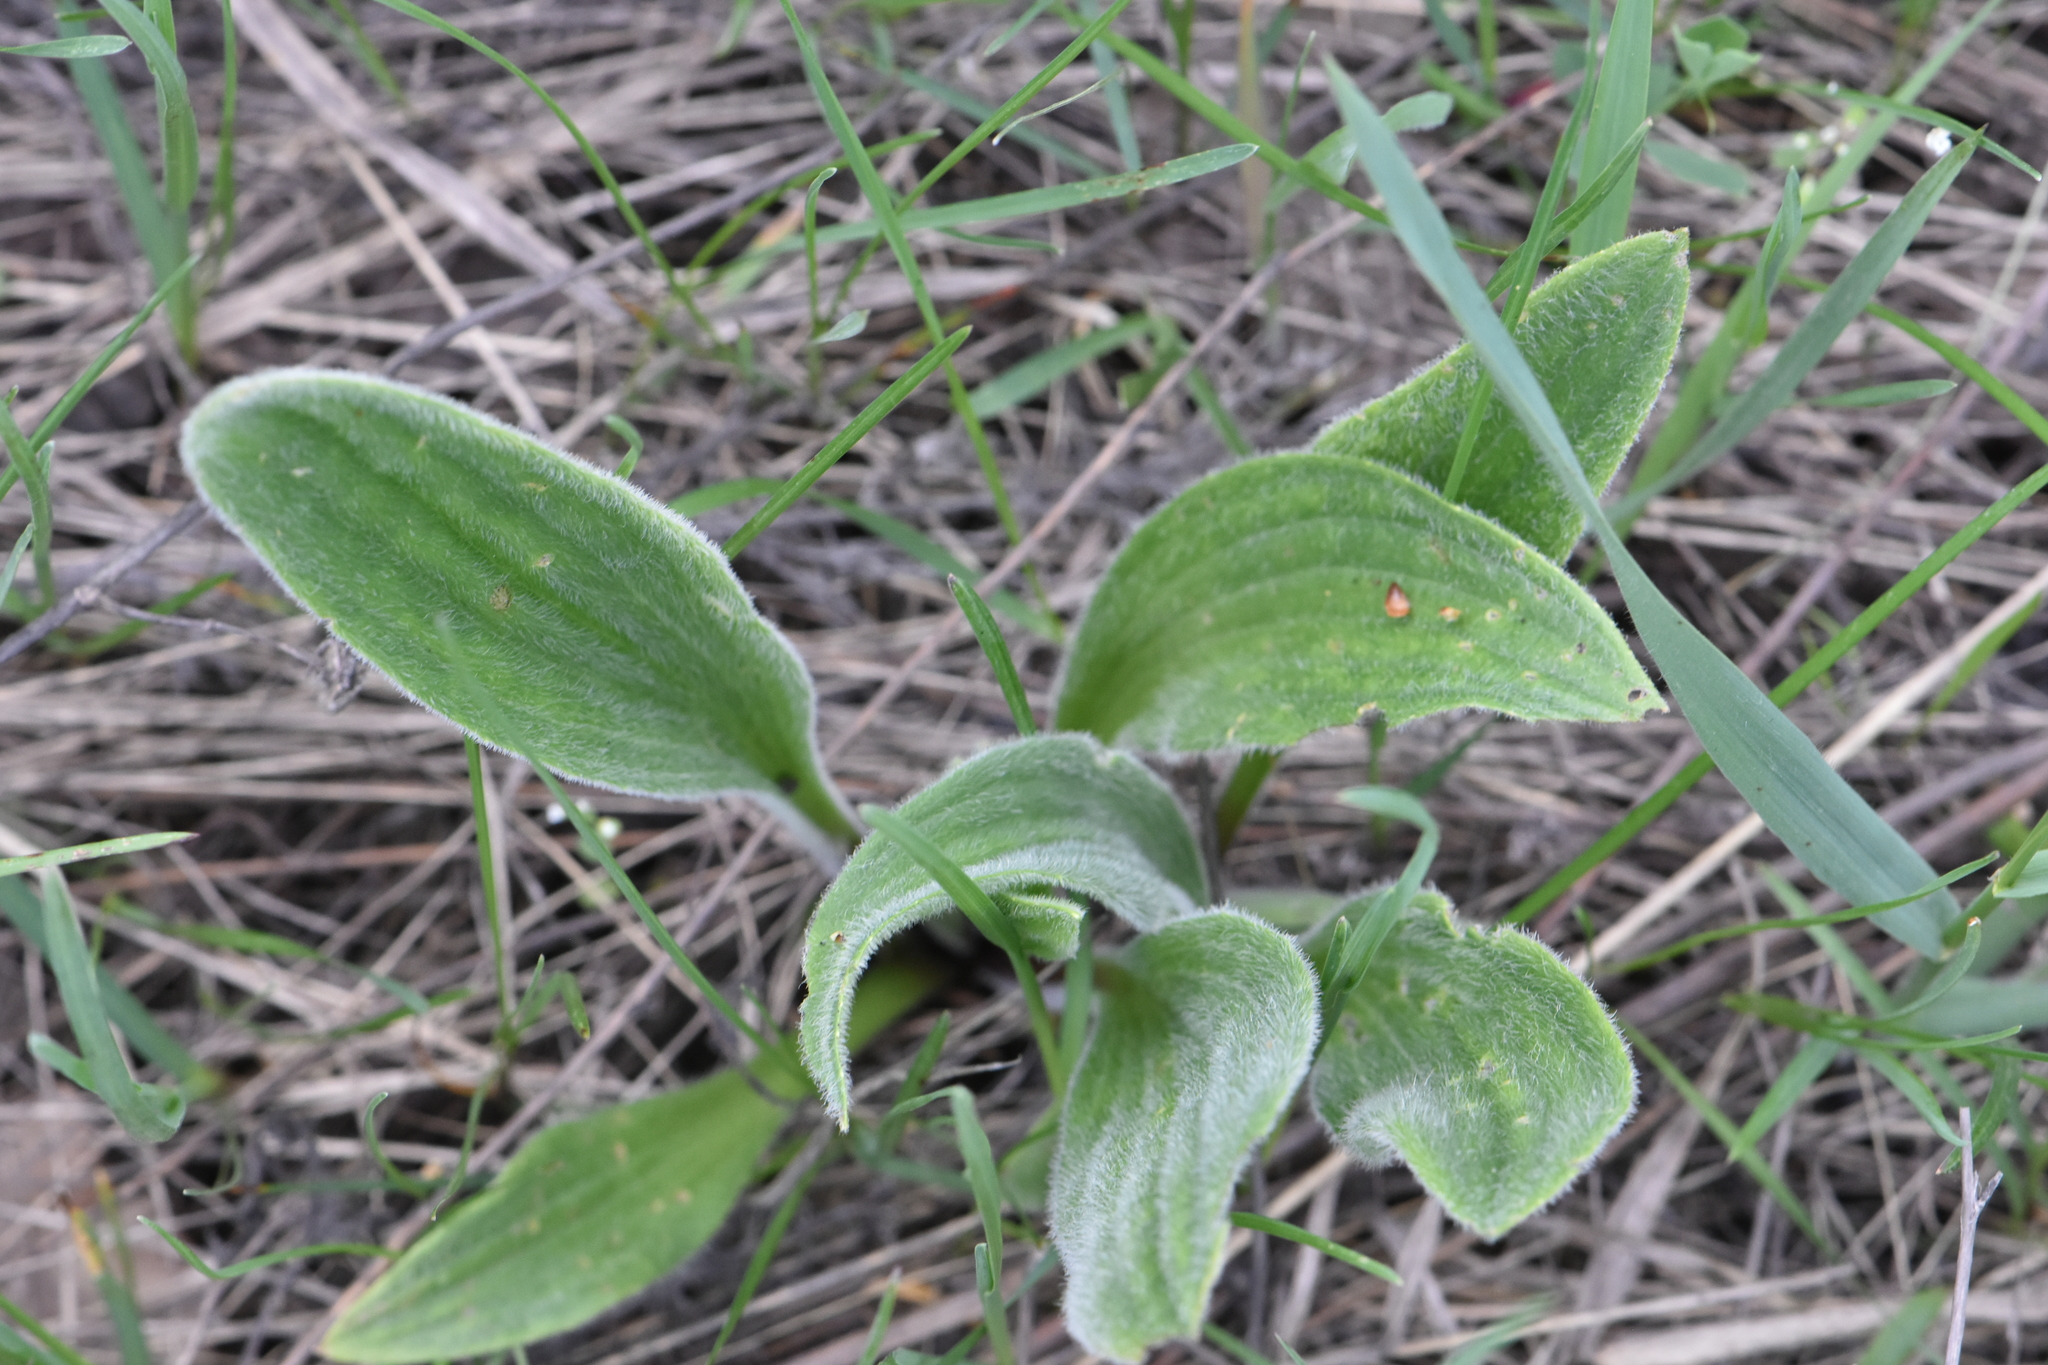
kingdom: Plantae
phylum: Tracheophyta
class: Magnoliopsida
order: Lamiales
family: Plantaginaceae
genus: Plantago
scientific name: Plantago urvillei
